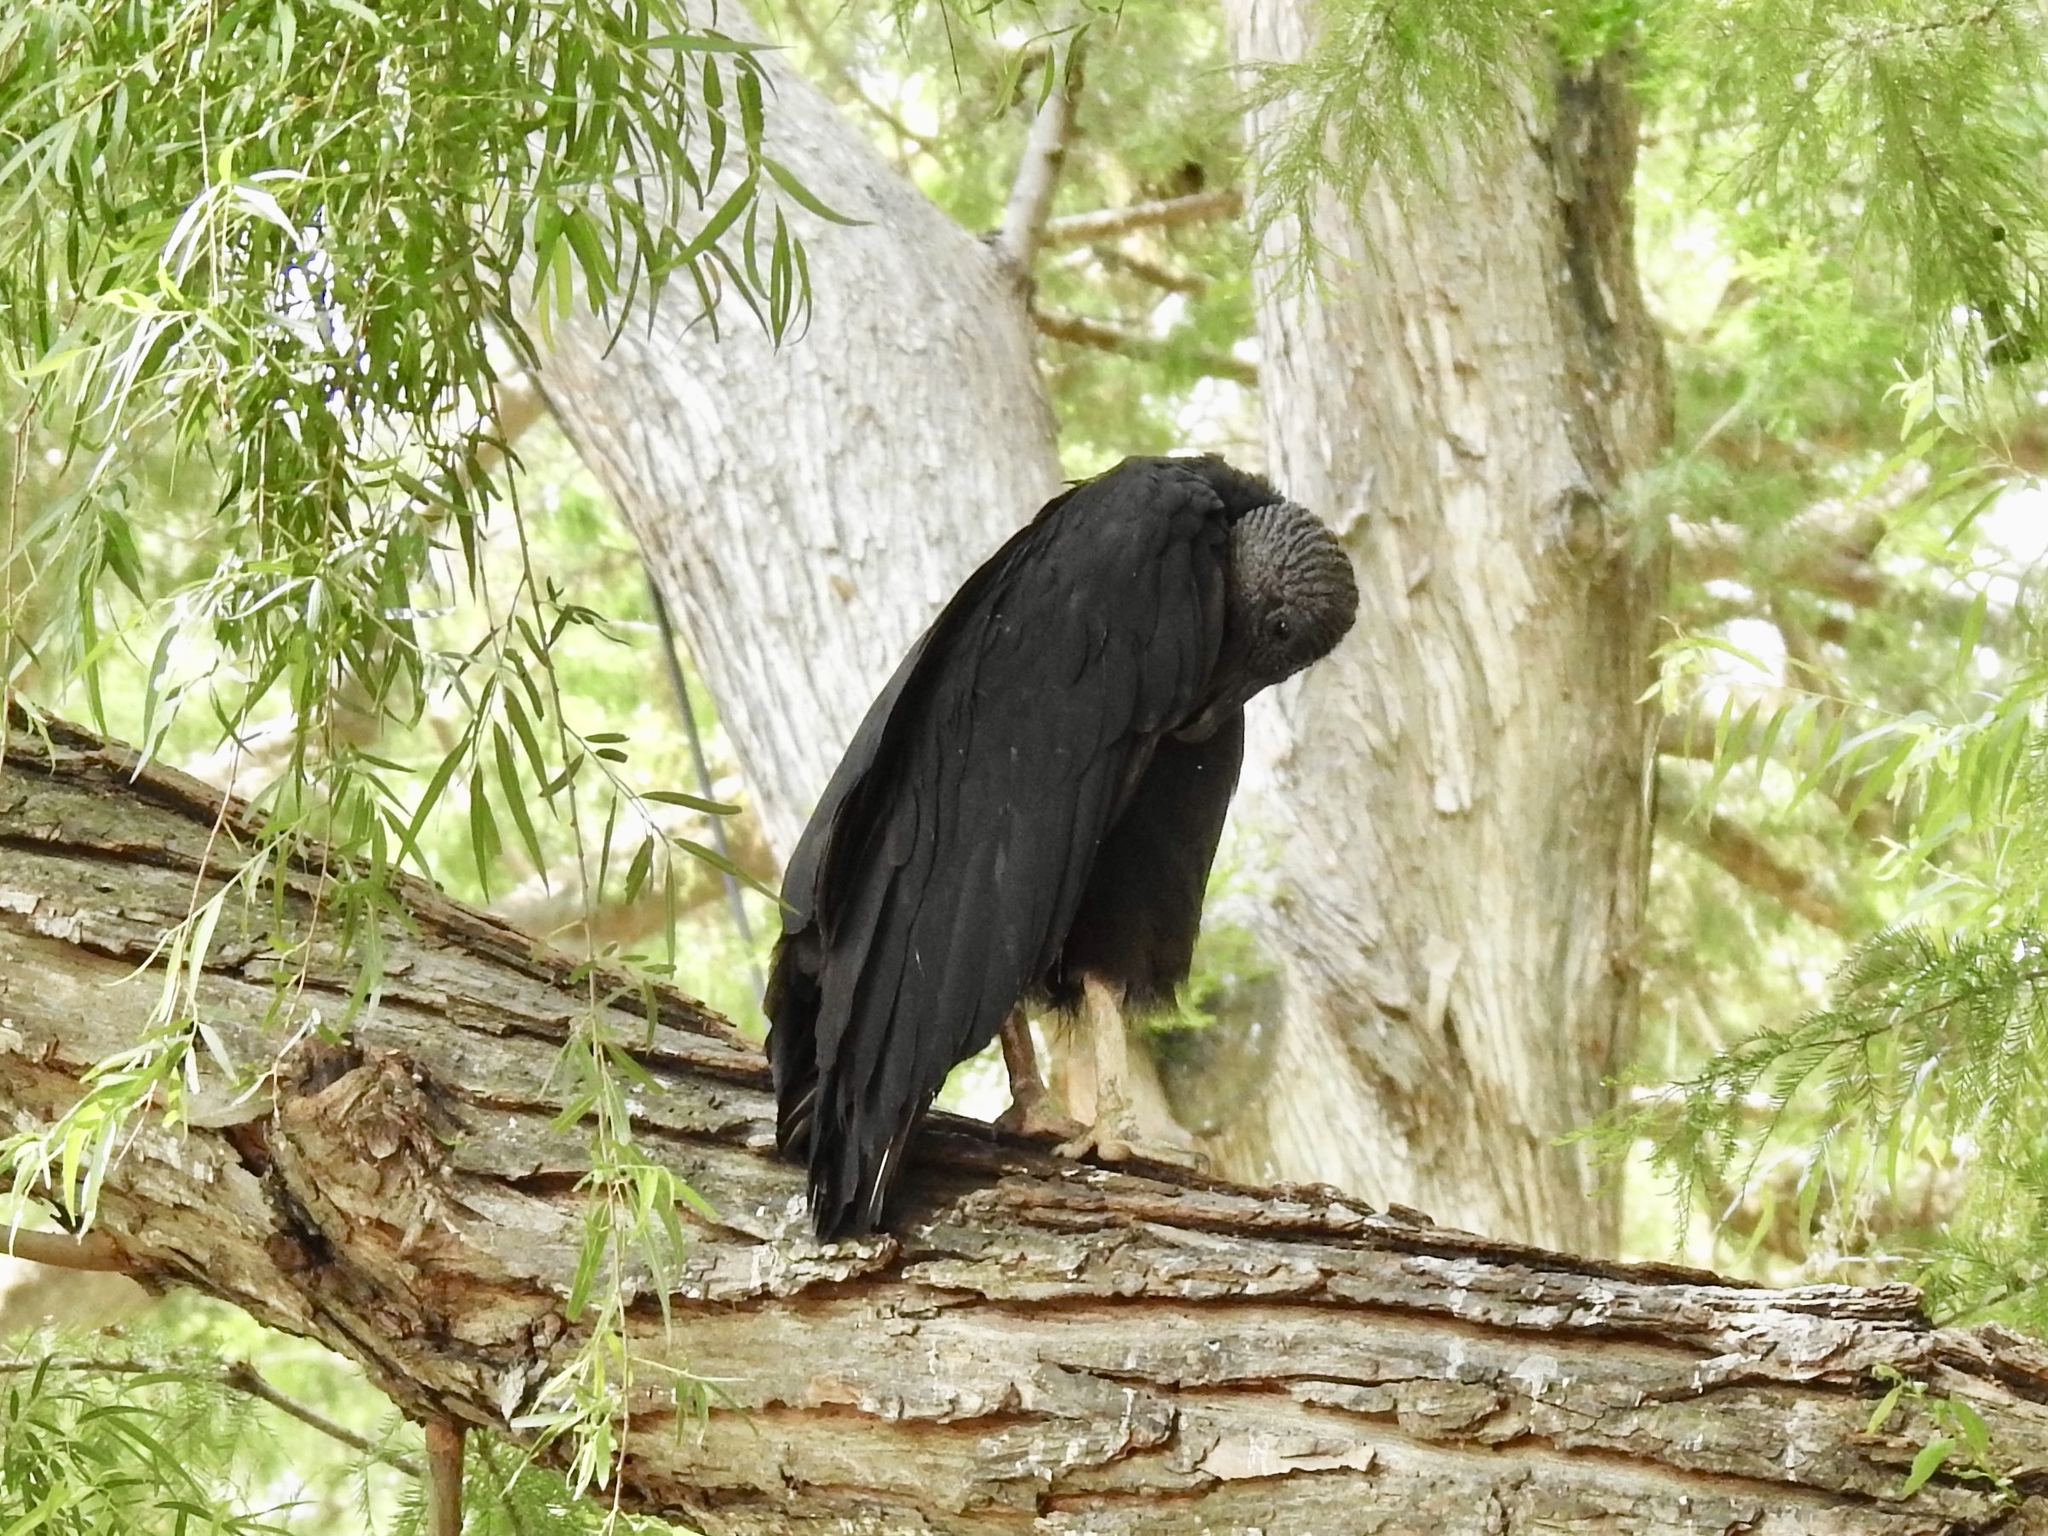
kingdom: Animalia
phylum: Chordata
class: Aves
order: Accipitriformes
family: Cathartidae
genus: Coragyps
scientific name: Coragyps atratus
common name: Black vulture
